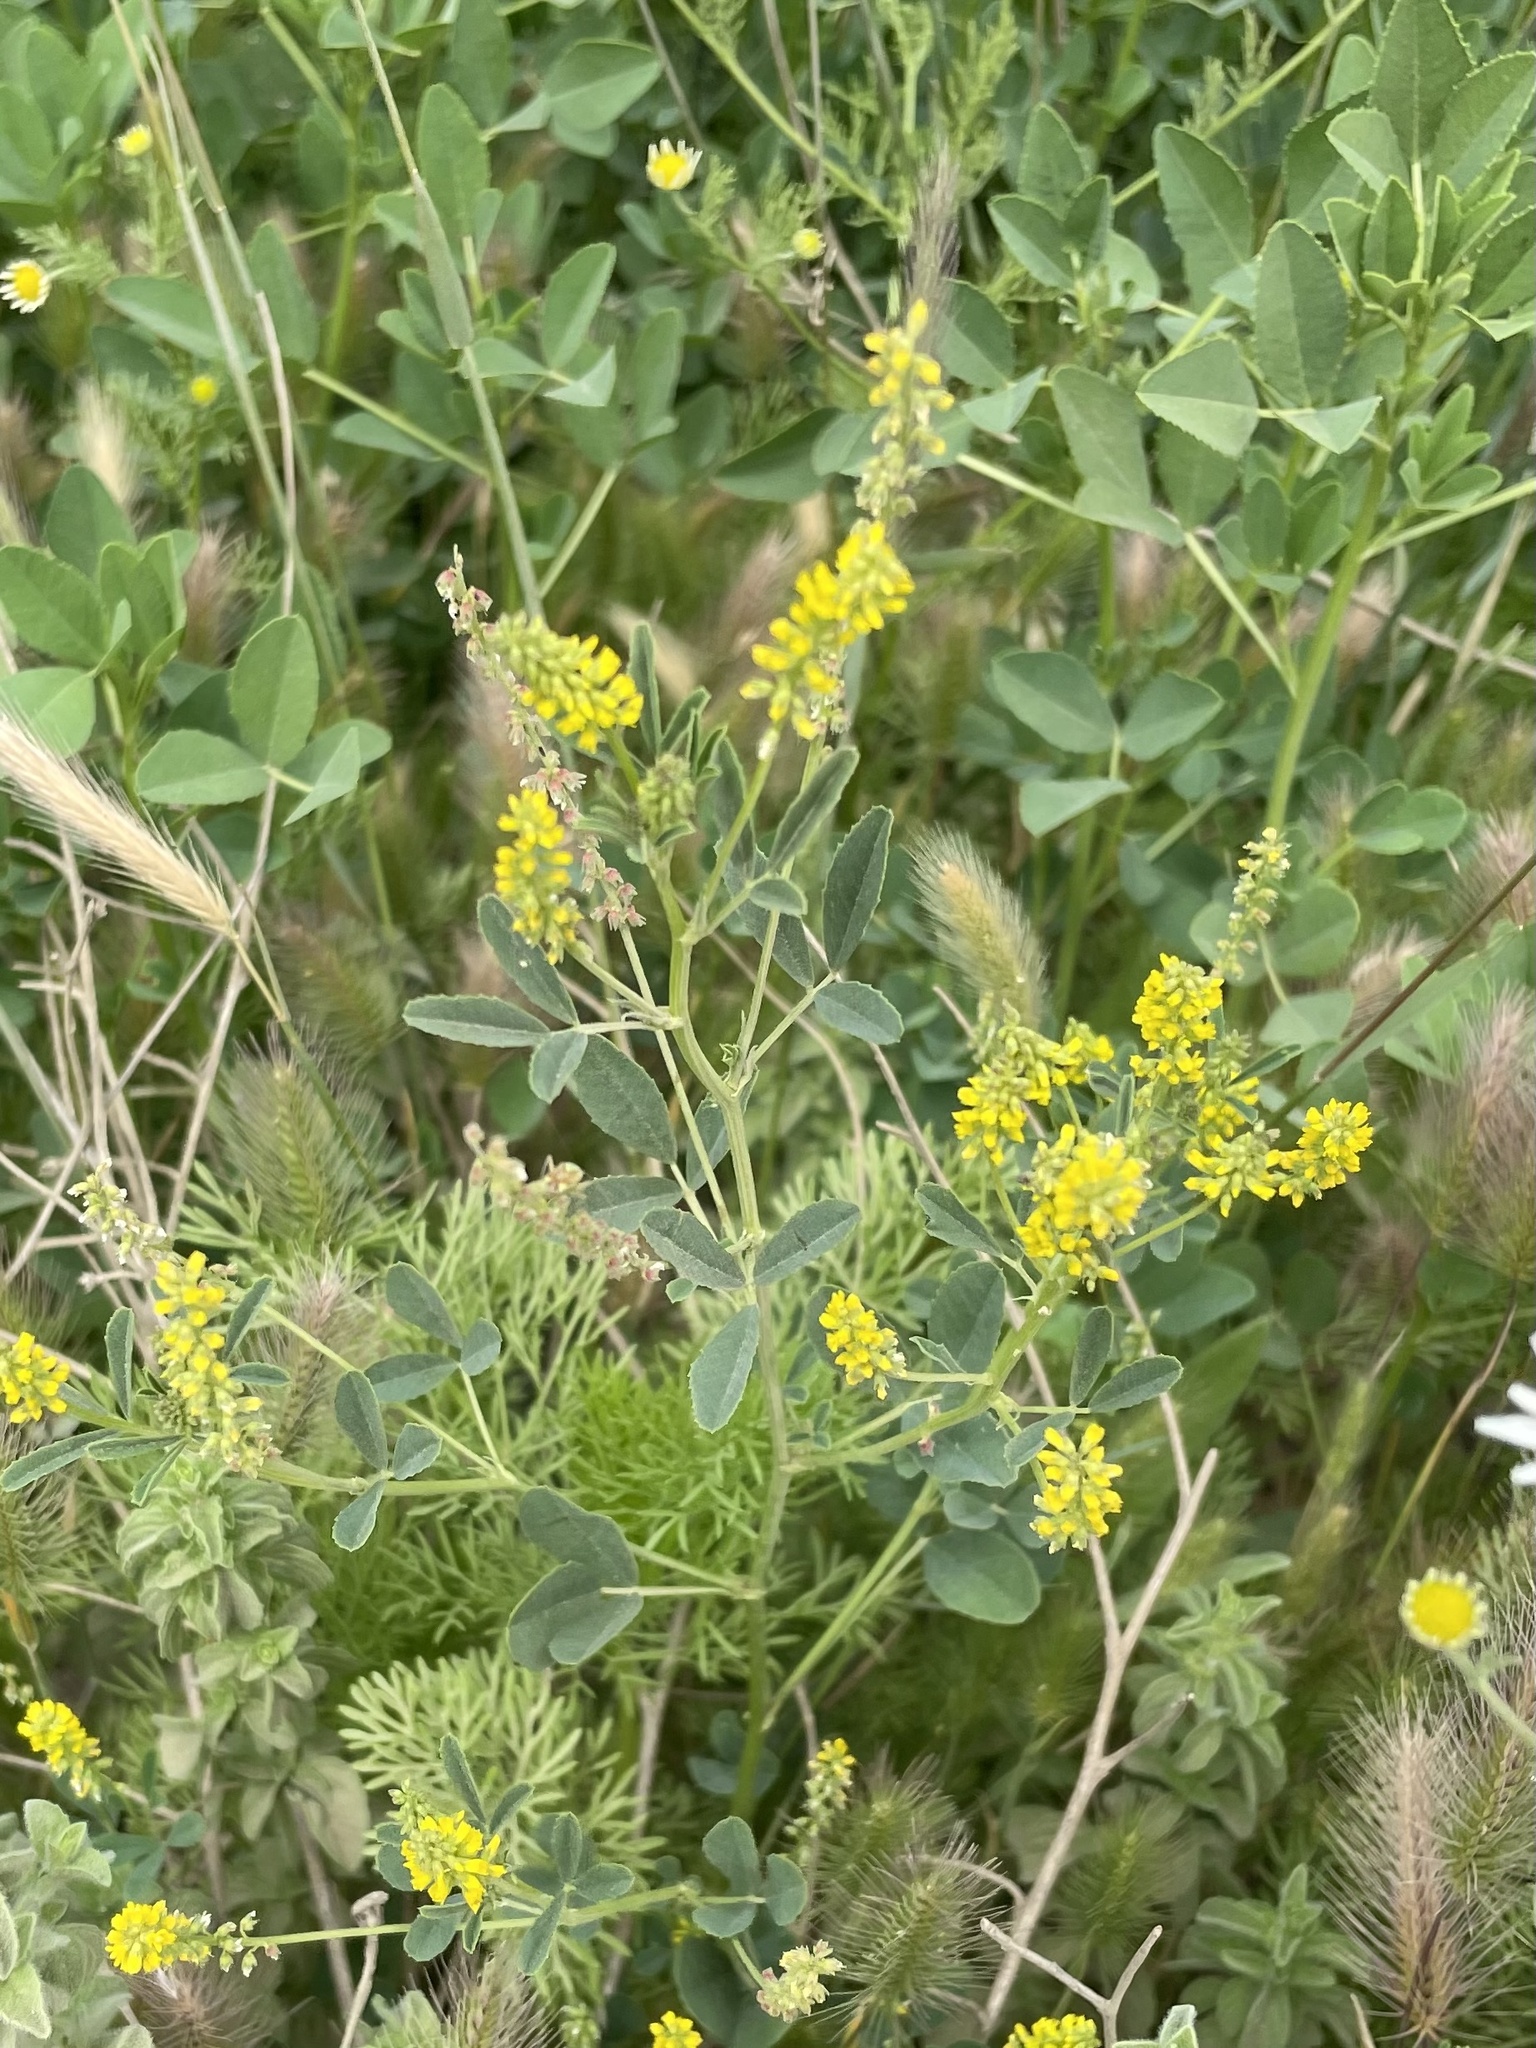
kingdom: Plantae
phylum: Tracheophyta
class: Magnoliopsida
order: Fabales
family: Fabaceae
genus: Melilotus
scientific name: Melilotus indicus
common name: Small melilot
